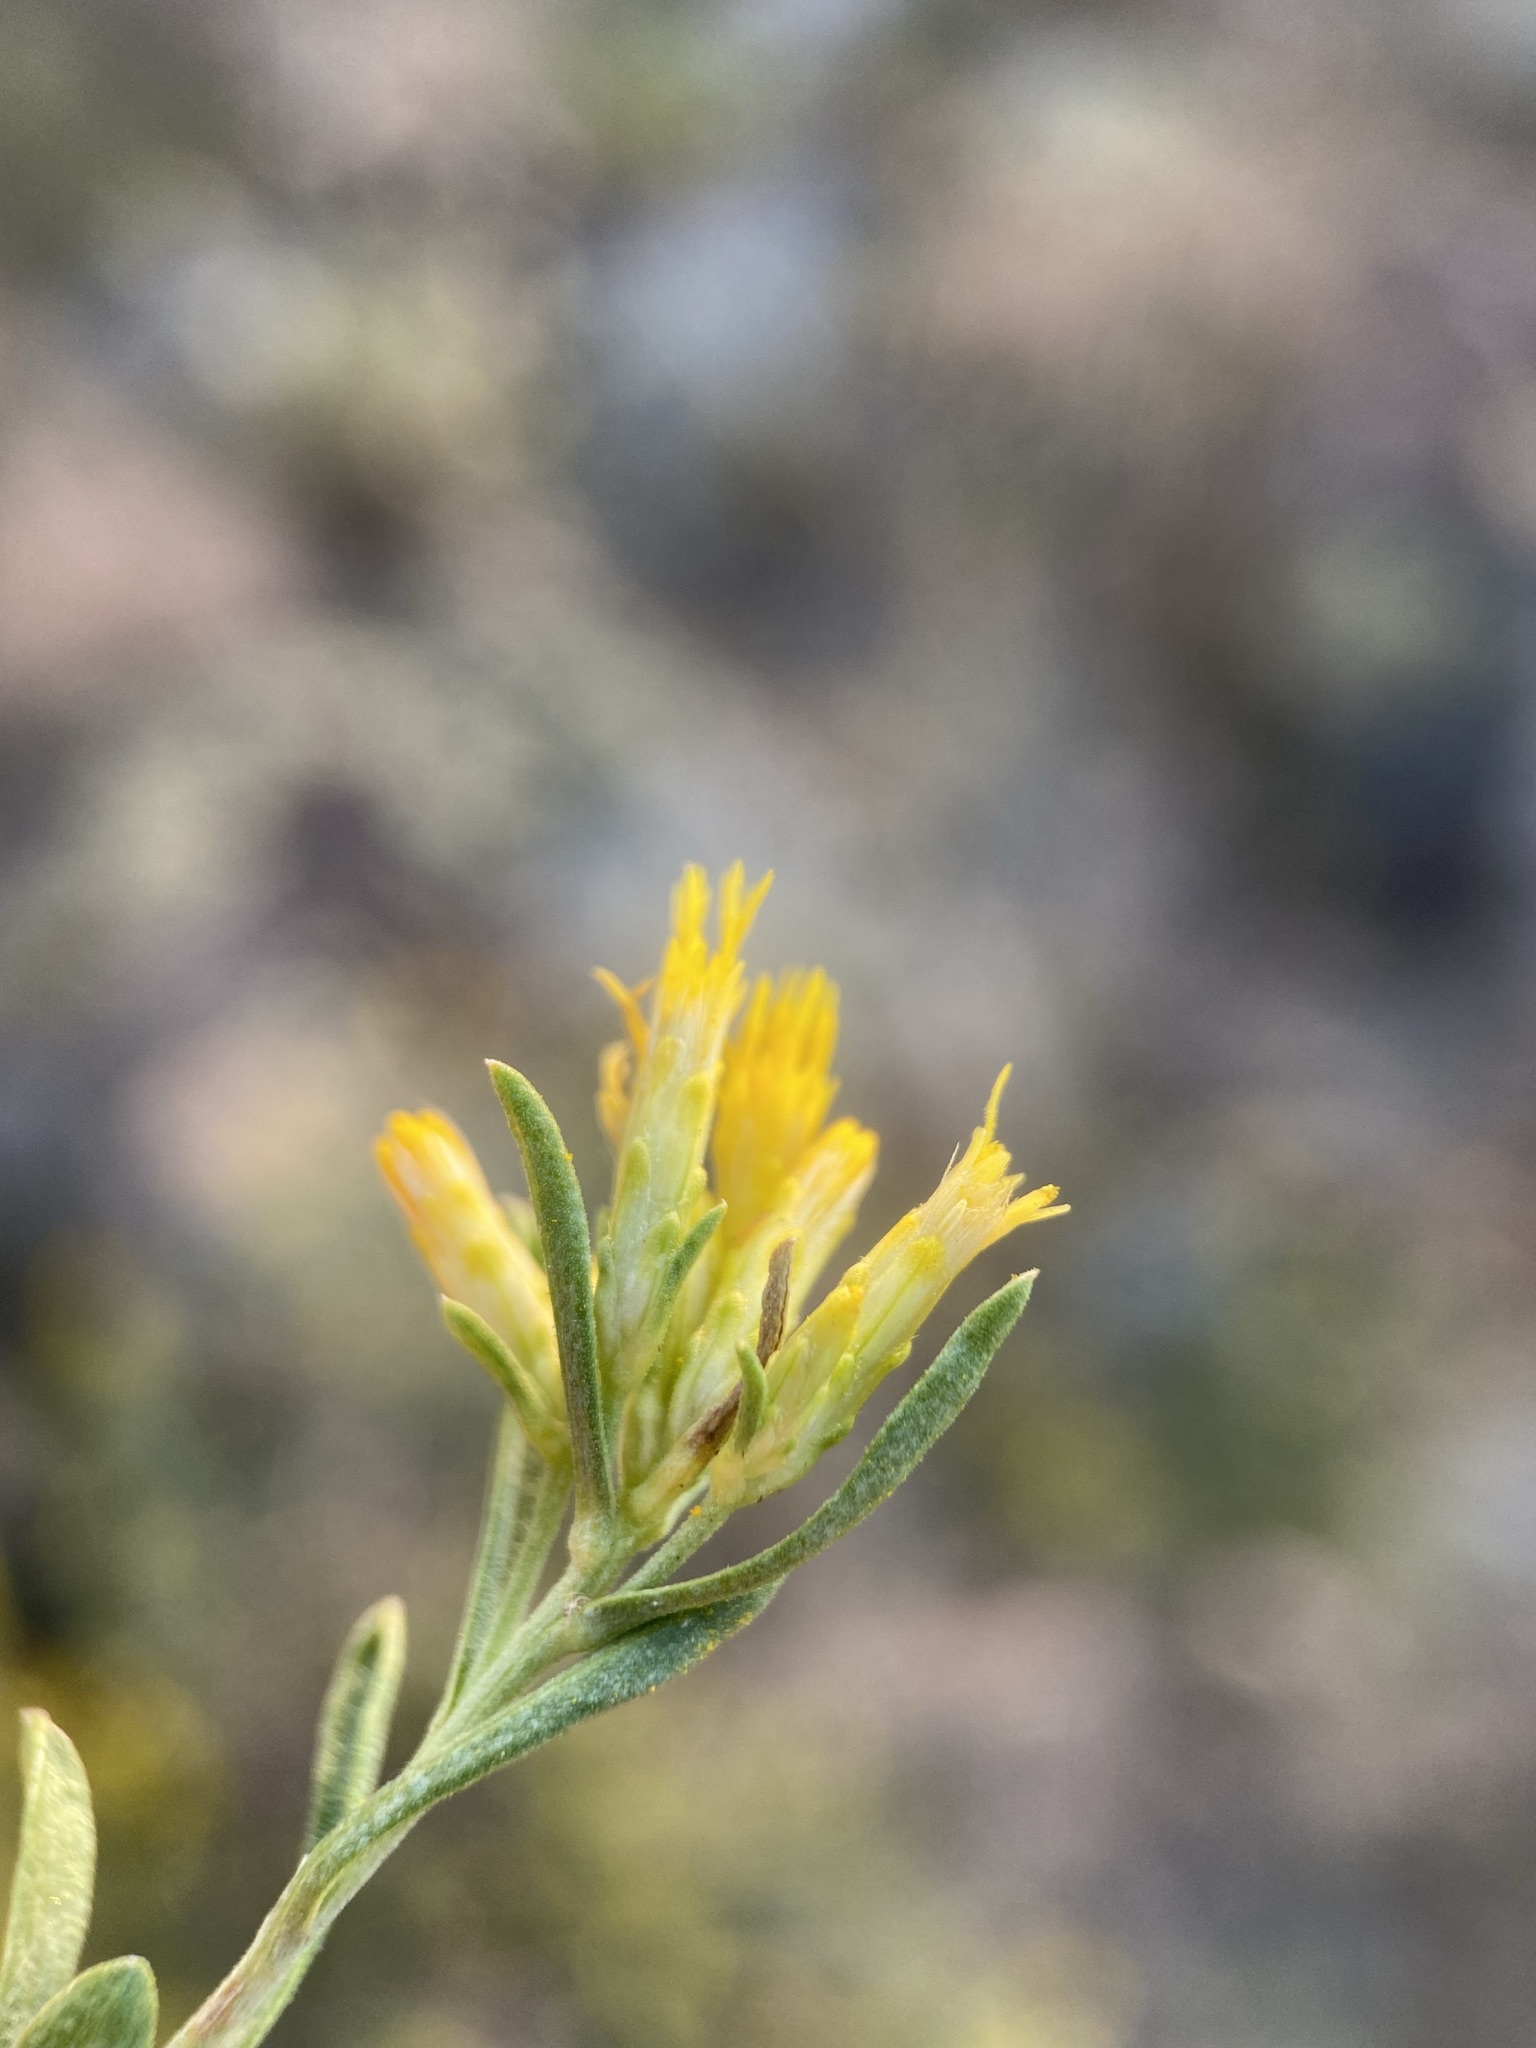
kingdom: Plantae
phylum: Tracheophyta
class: Magnoliopsida
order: Asterales
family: Asteraceae
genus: Chrysothamnus
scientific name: Chrysothamnus viscidiflorus
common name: Yellow rabbitbrush
